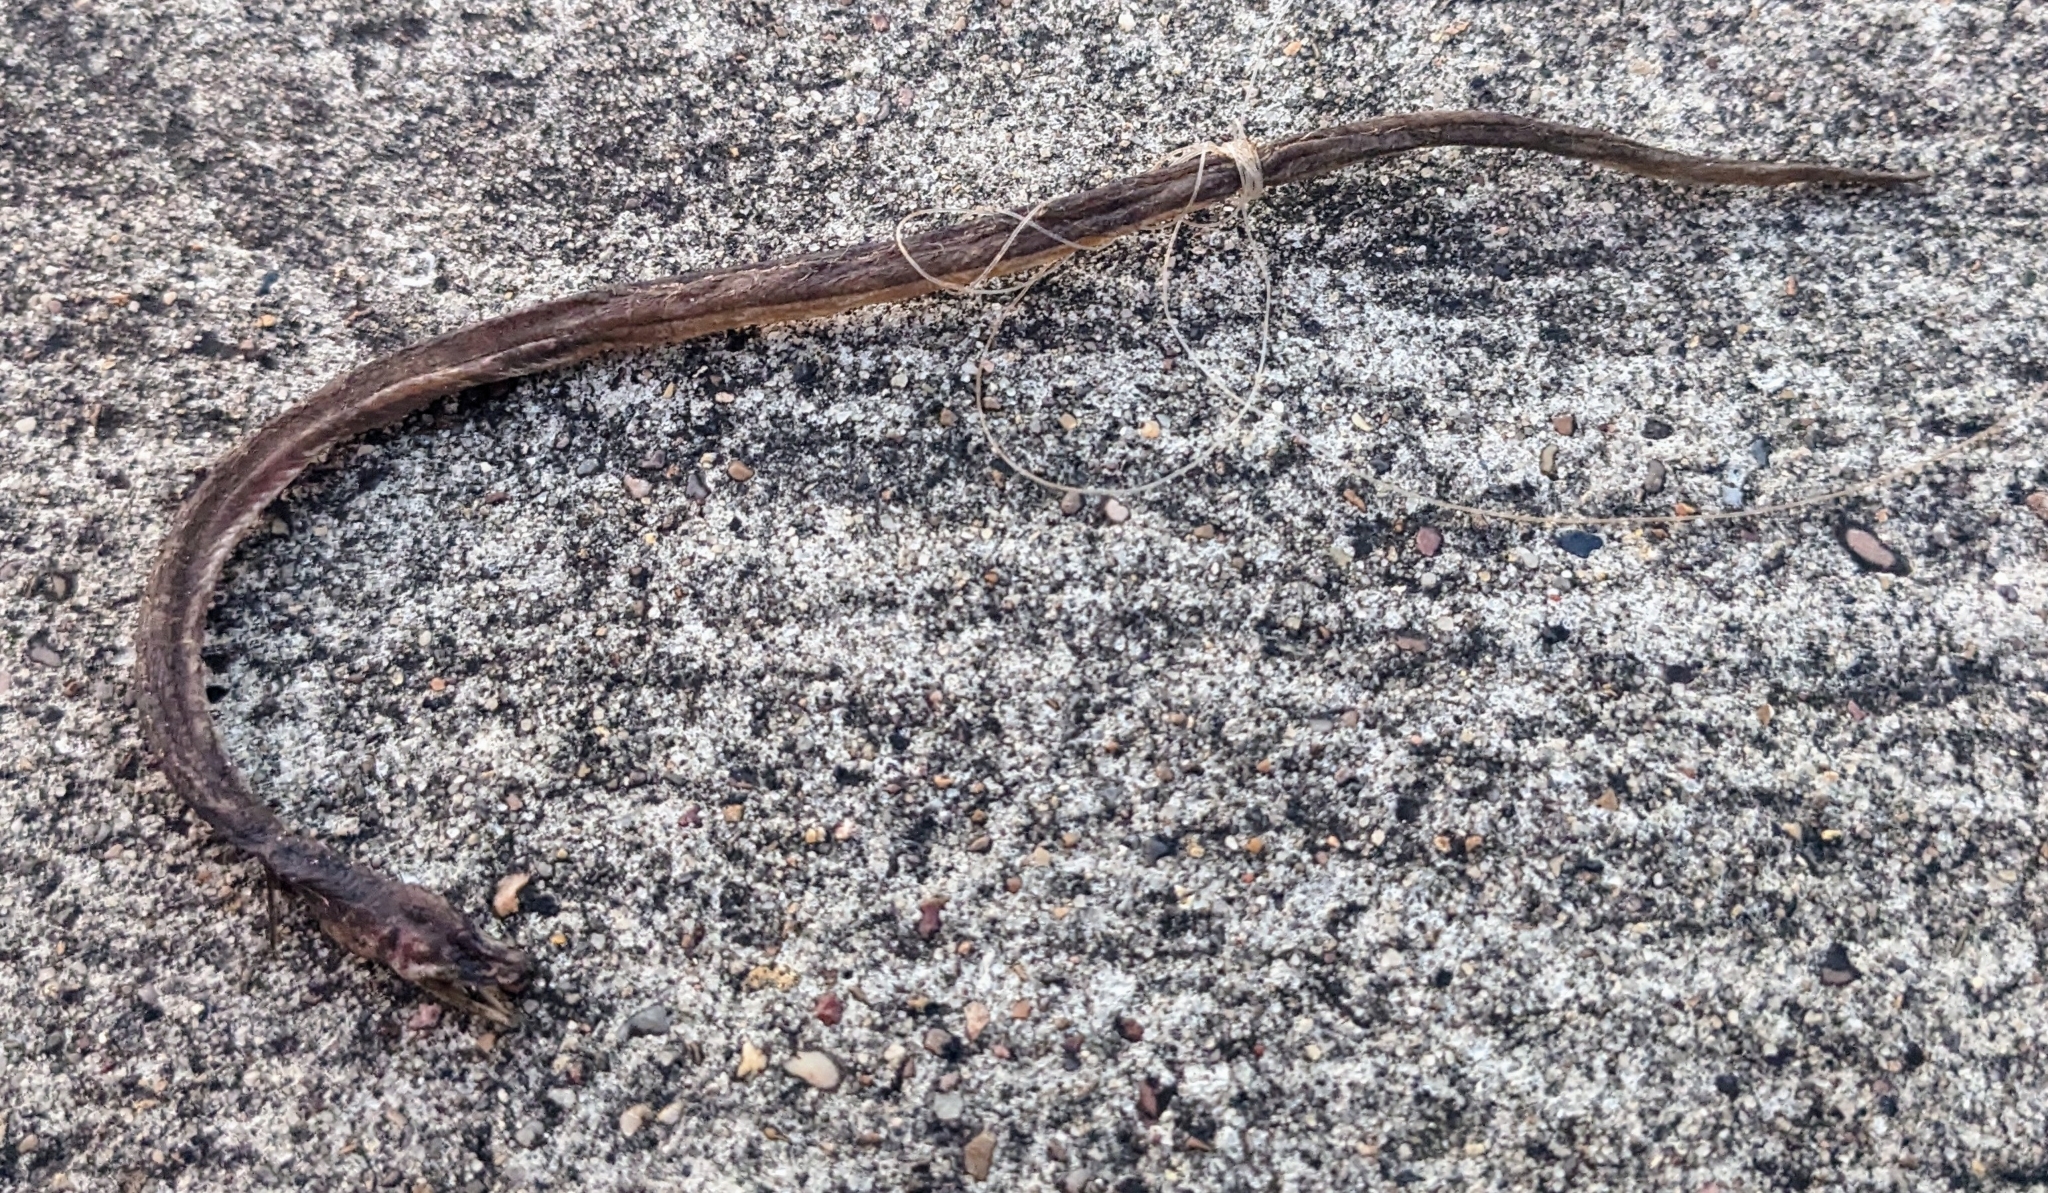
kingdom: Animalia
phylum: Chordata
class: Squamata
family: Colubridae
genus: Haldea
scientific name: Haldea striatula
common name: Rough earth snake
